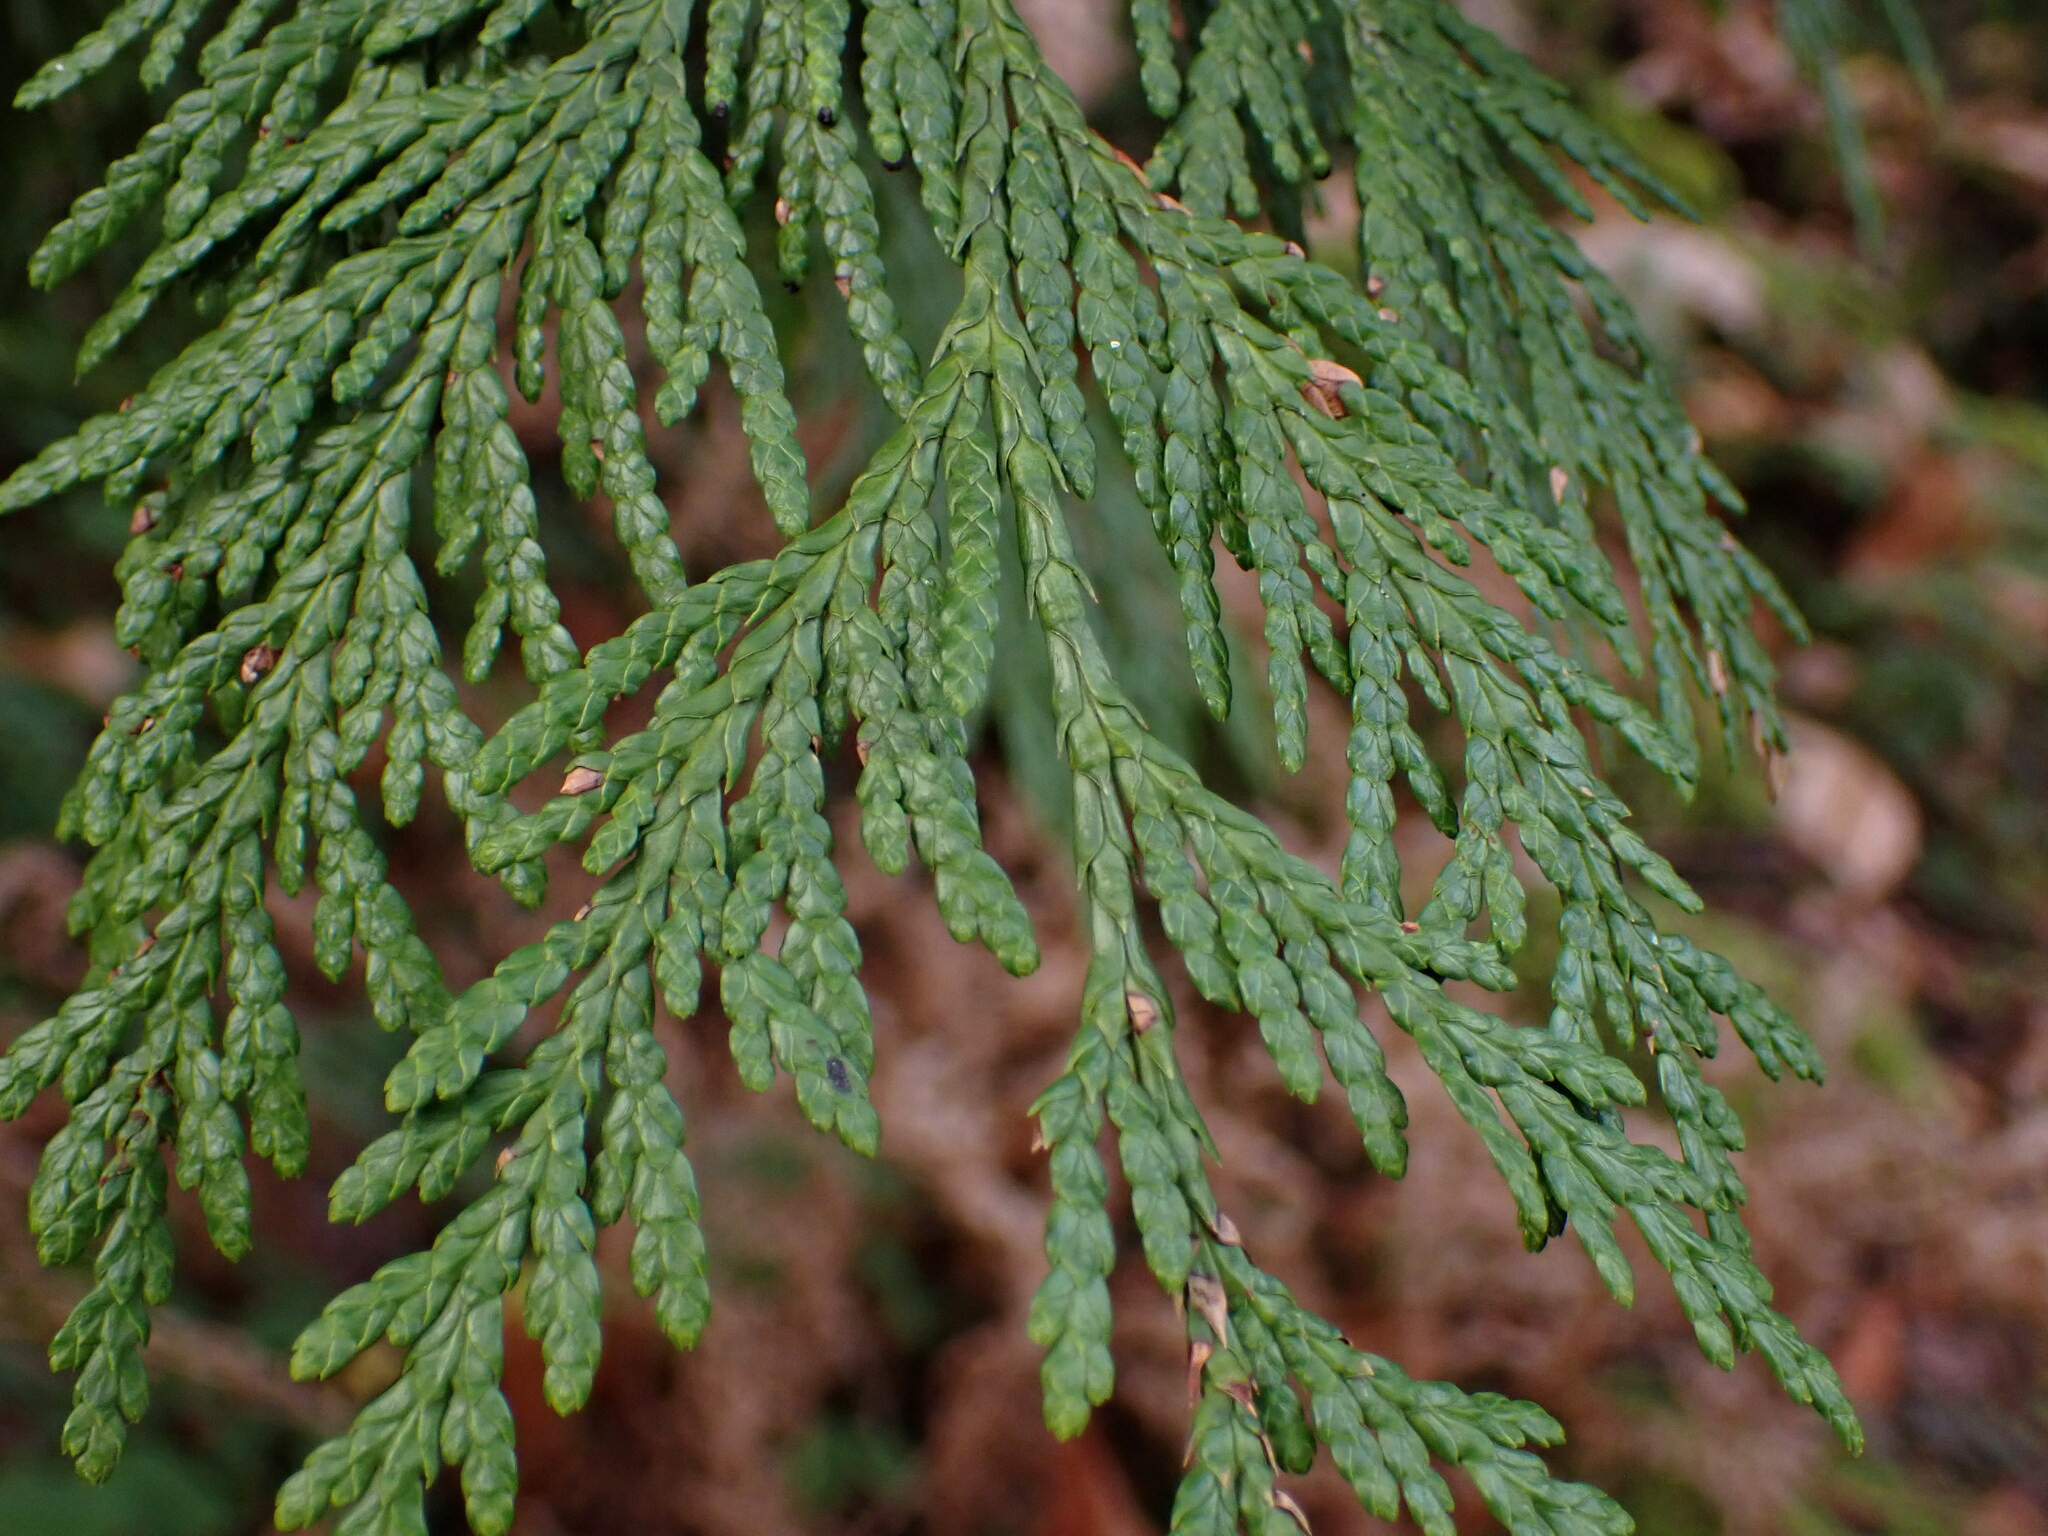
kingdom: Plantae
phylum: Tracheophyta
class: Pinopsida
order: Pinales
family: Cupressaceae
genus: Thuja
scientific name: Thuja plicata
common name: Western red-cedar
